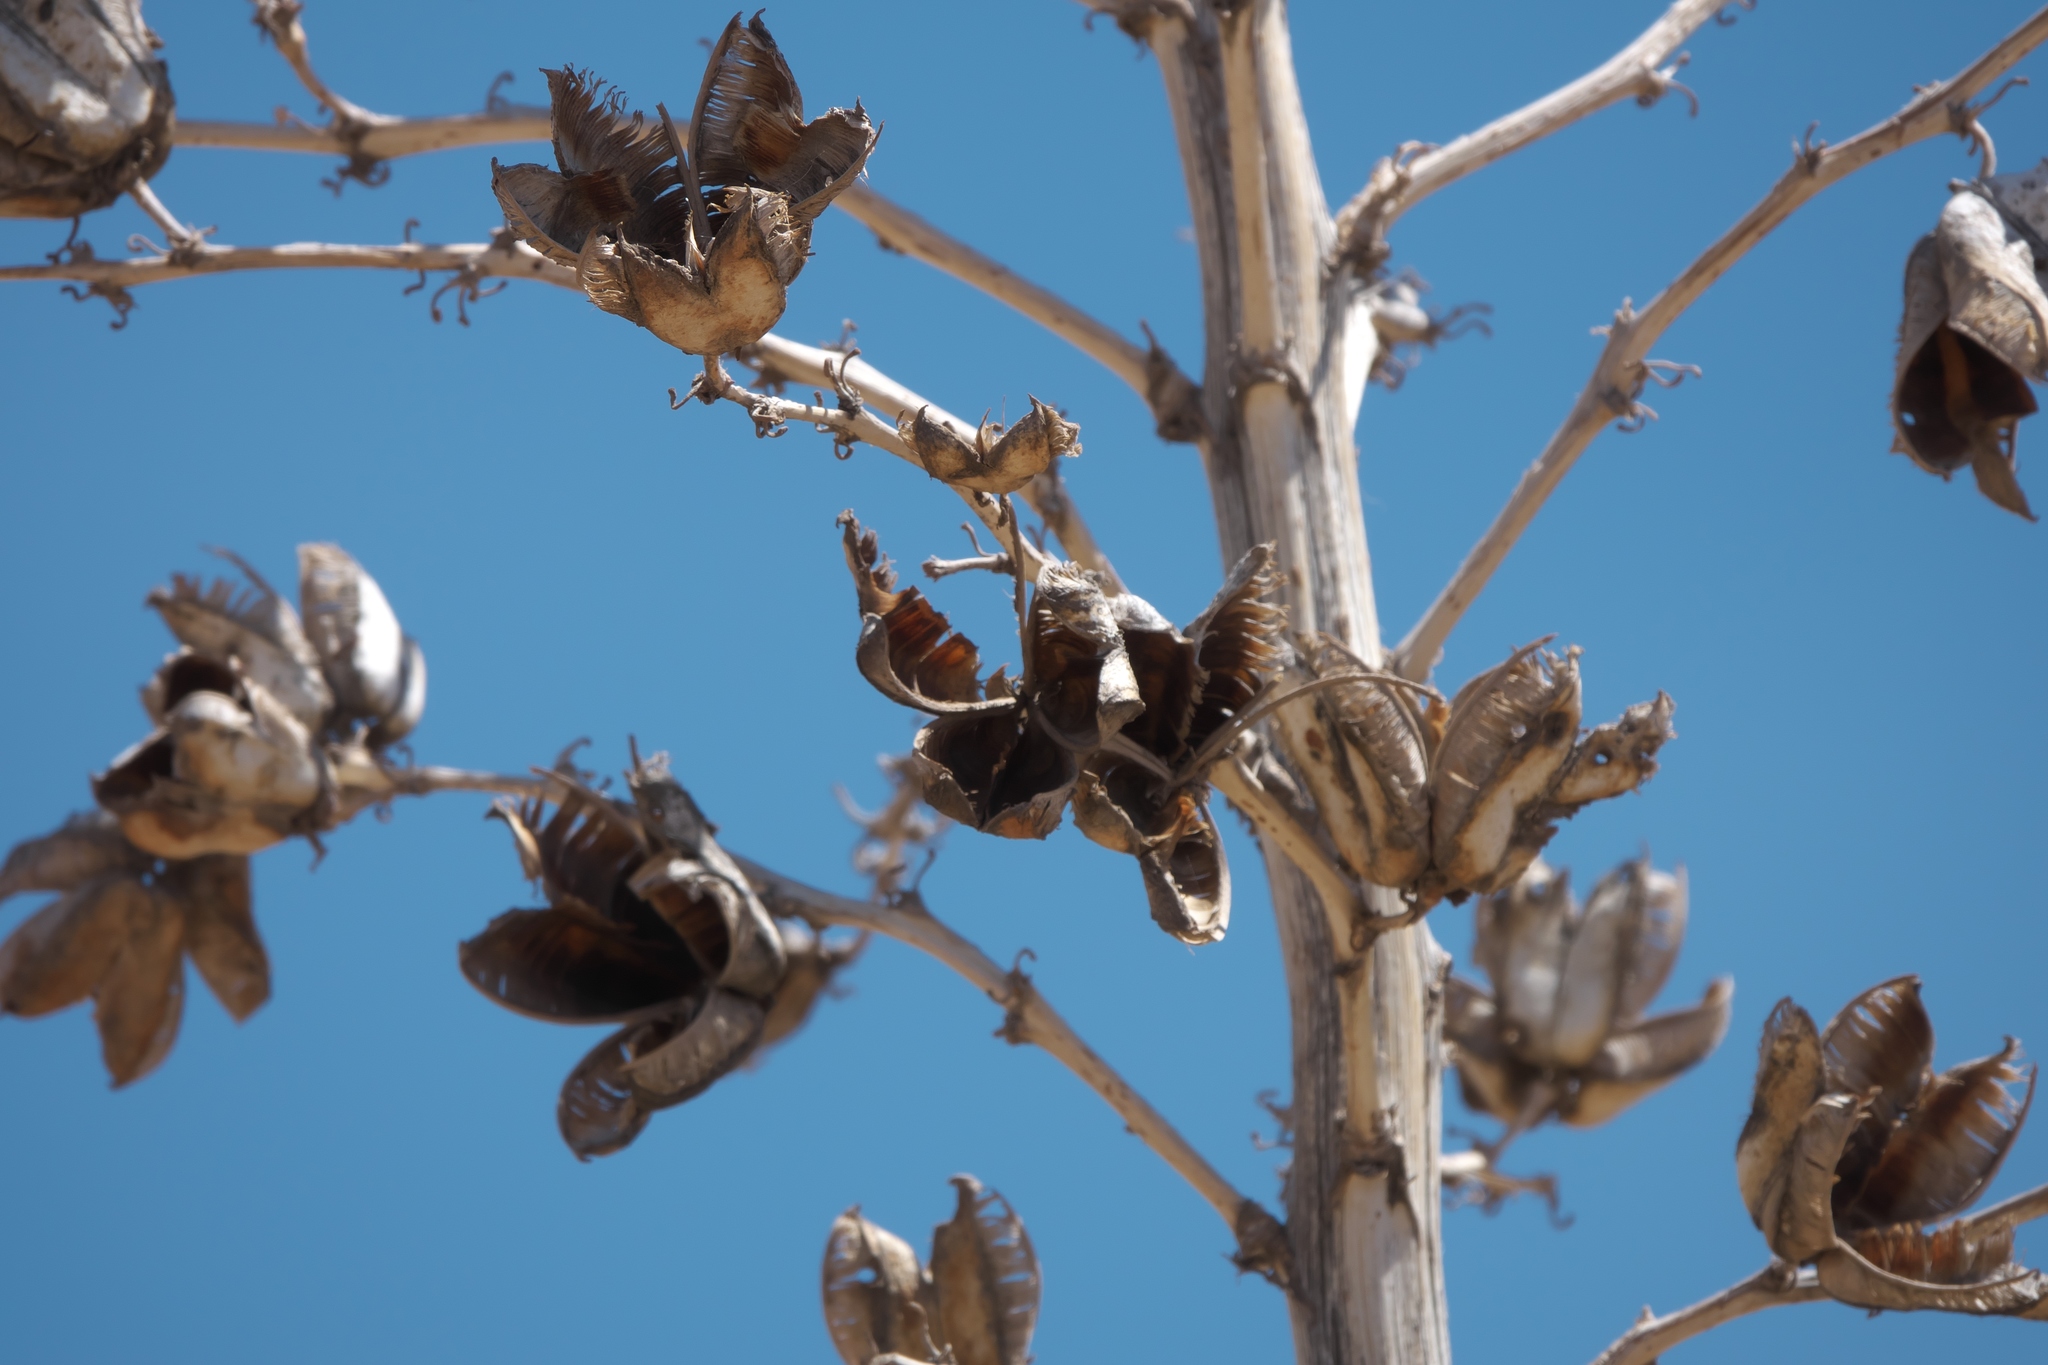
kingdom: Plantae
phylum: Tracheophyta
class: Liliopsida
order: Asparagales
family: Asparagaceae
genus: Yucca
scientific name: Yucca elata
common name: Palmella
